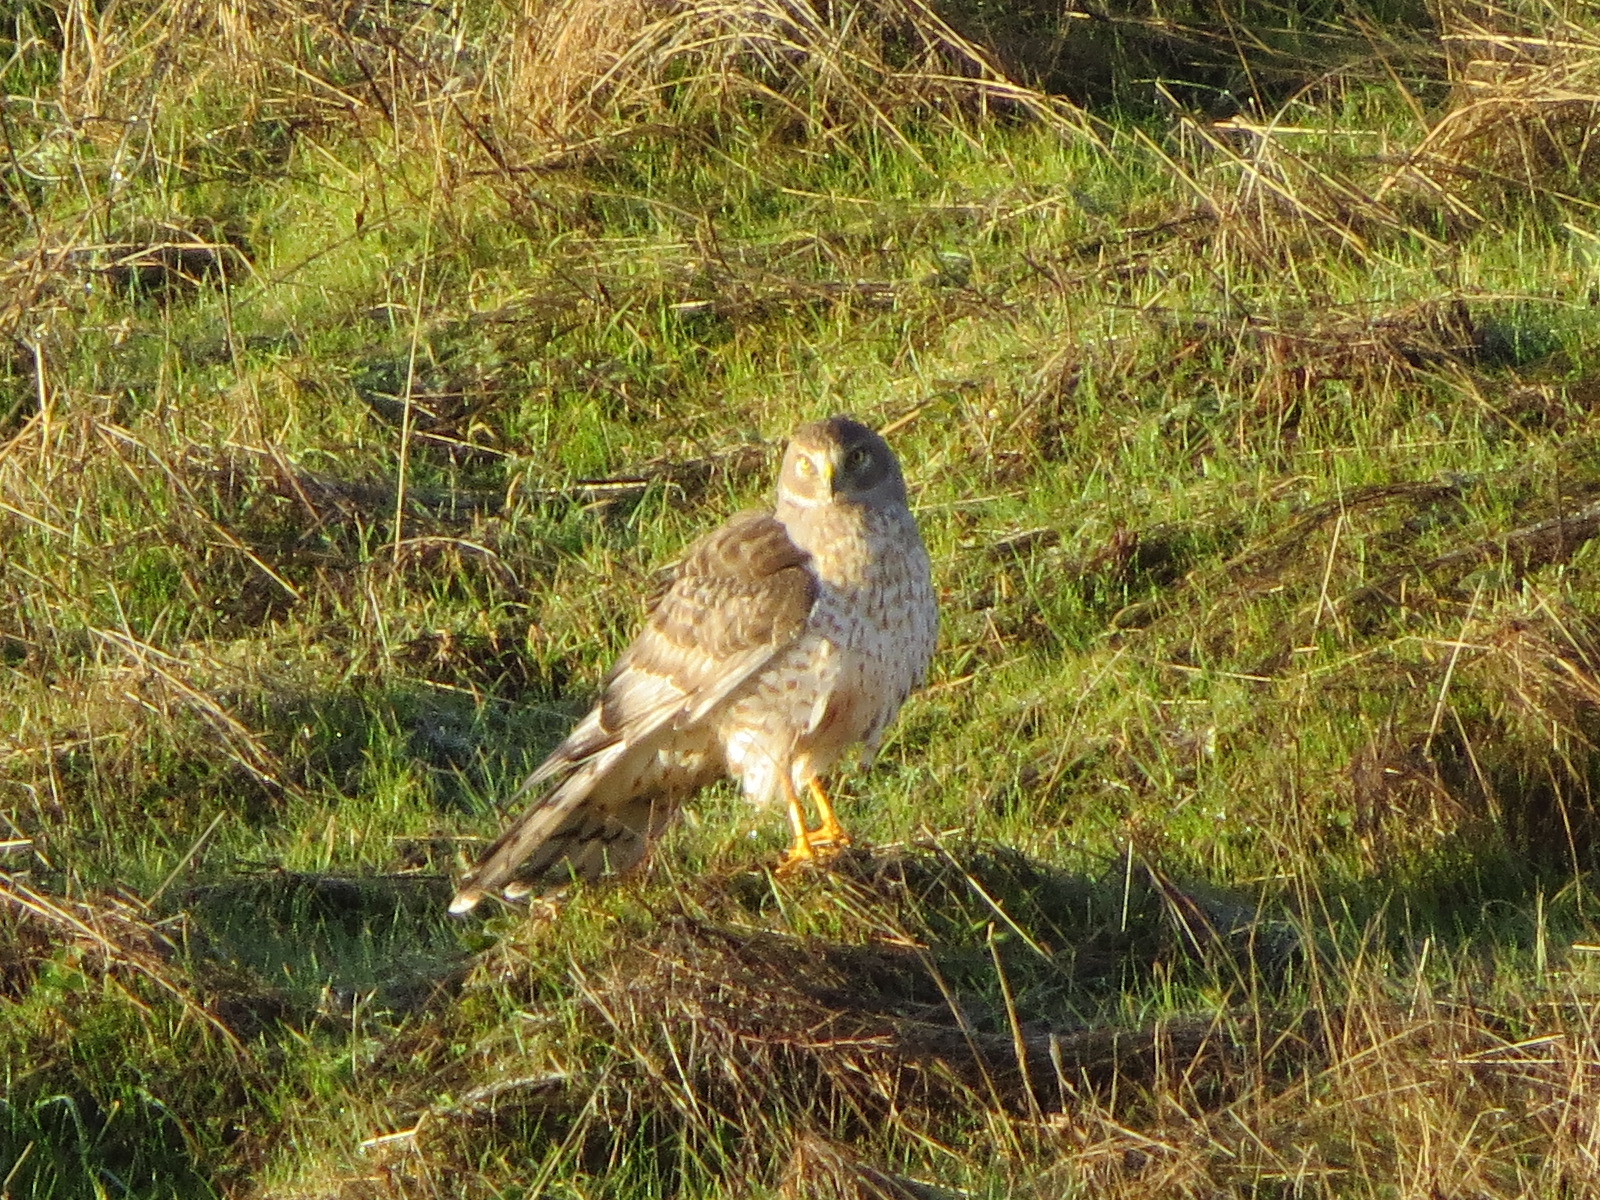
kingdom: Animalia
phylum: Chordata
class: Aves
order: Accipitriformes
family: Accipitridae
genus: Circus
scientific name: Circus cyaneus
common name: Hen harrier
